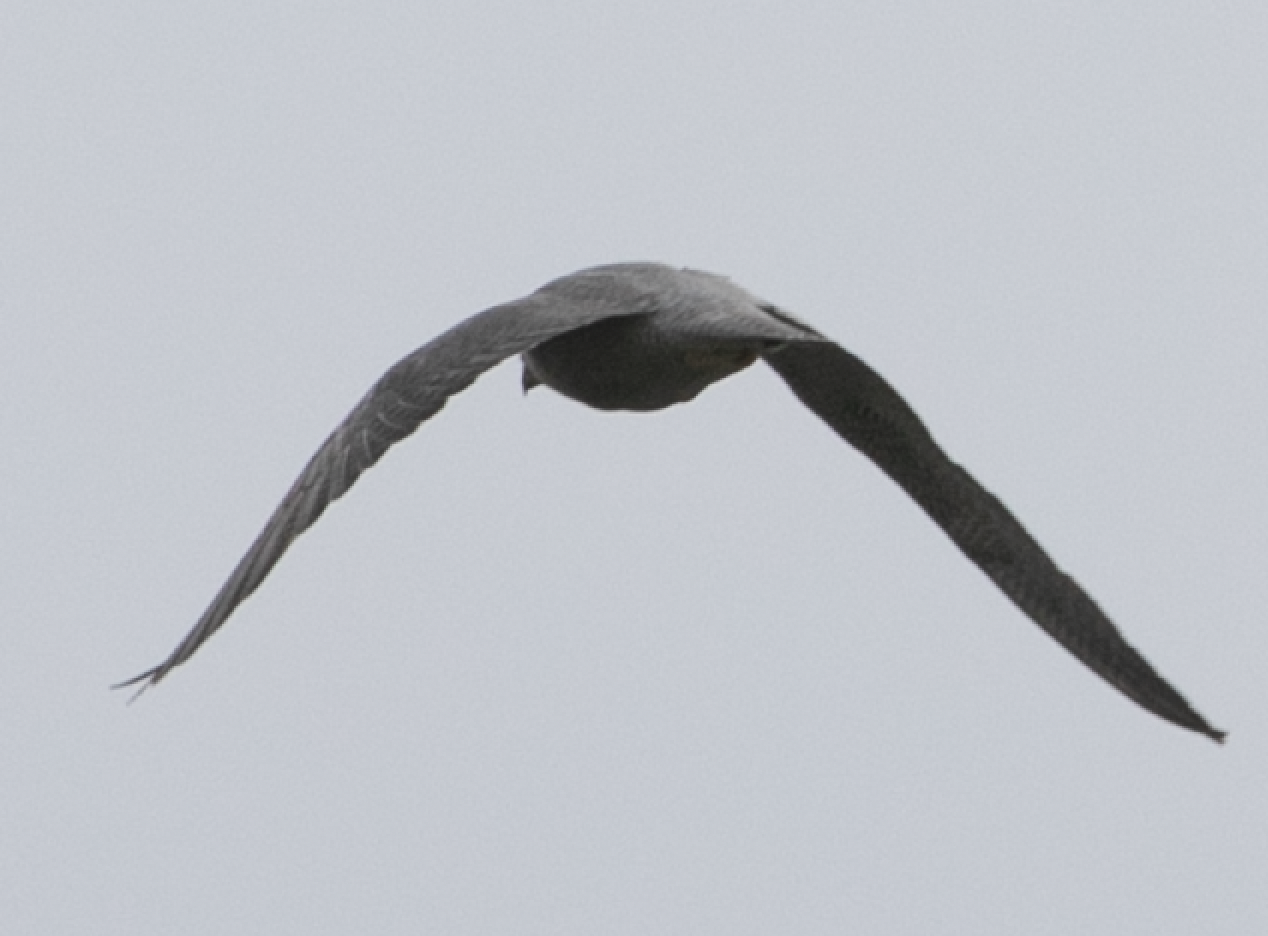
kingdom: Animalia
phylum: Chordata
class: Aves
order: Falconiformes
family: Falconidae
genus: Falco
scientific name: Falco peregrinus
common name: Peregrine falcon
